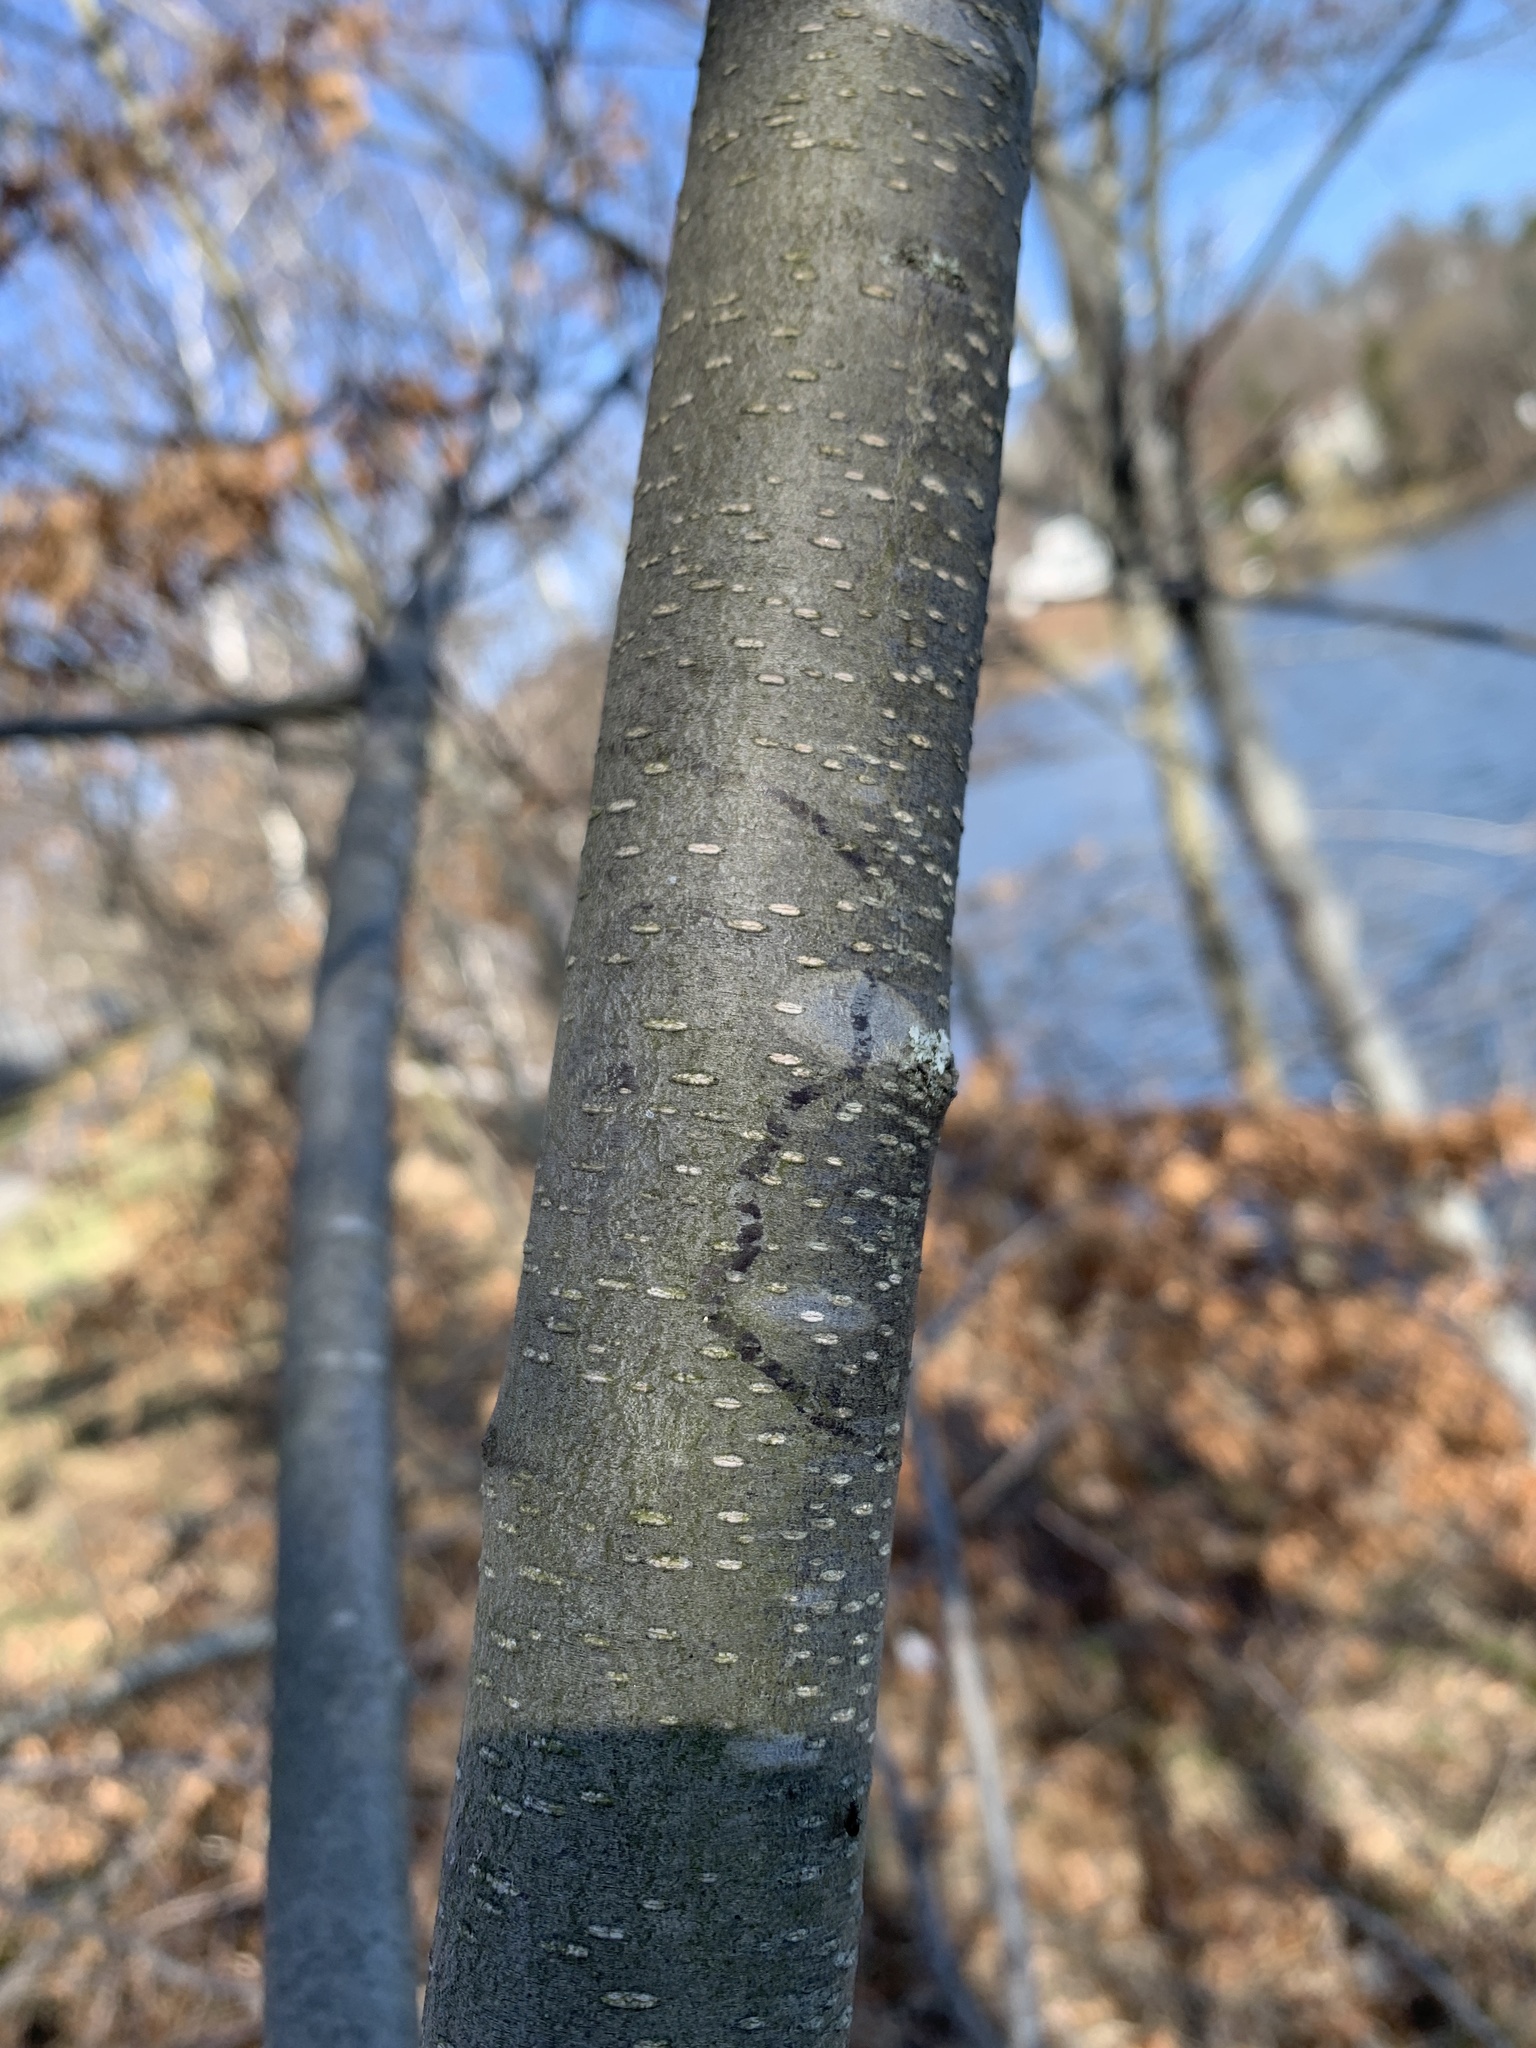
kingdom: Animalia
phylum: Arthropoda
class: Insecta
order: Lepidoptera
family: Gracillariidae
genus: Marmara
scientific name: Marmara serotinella
